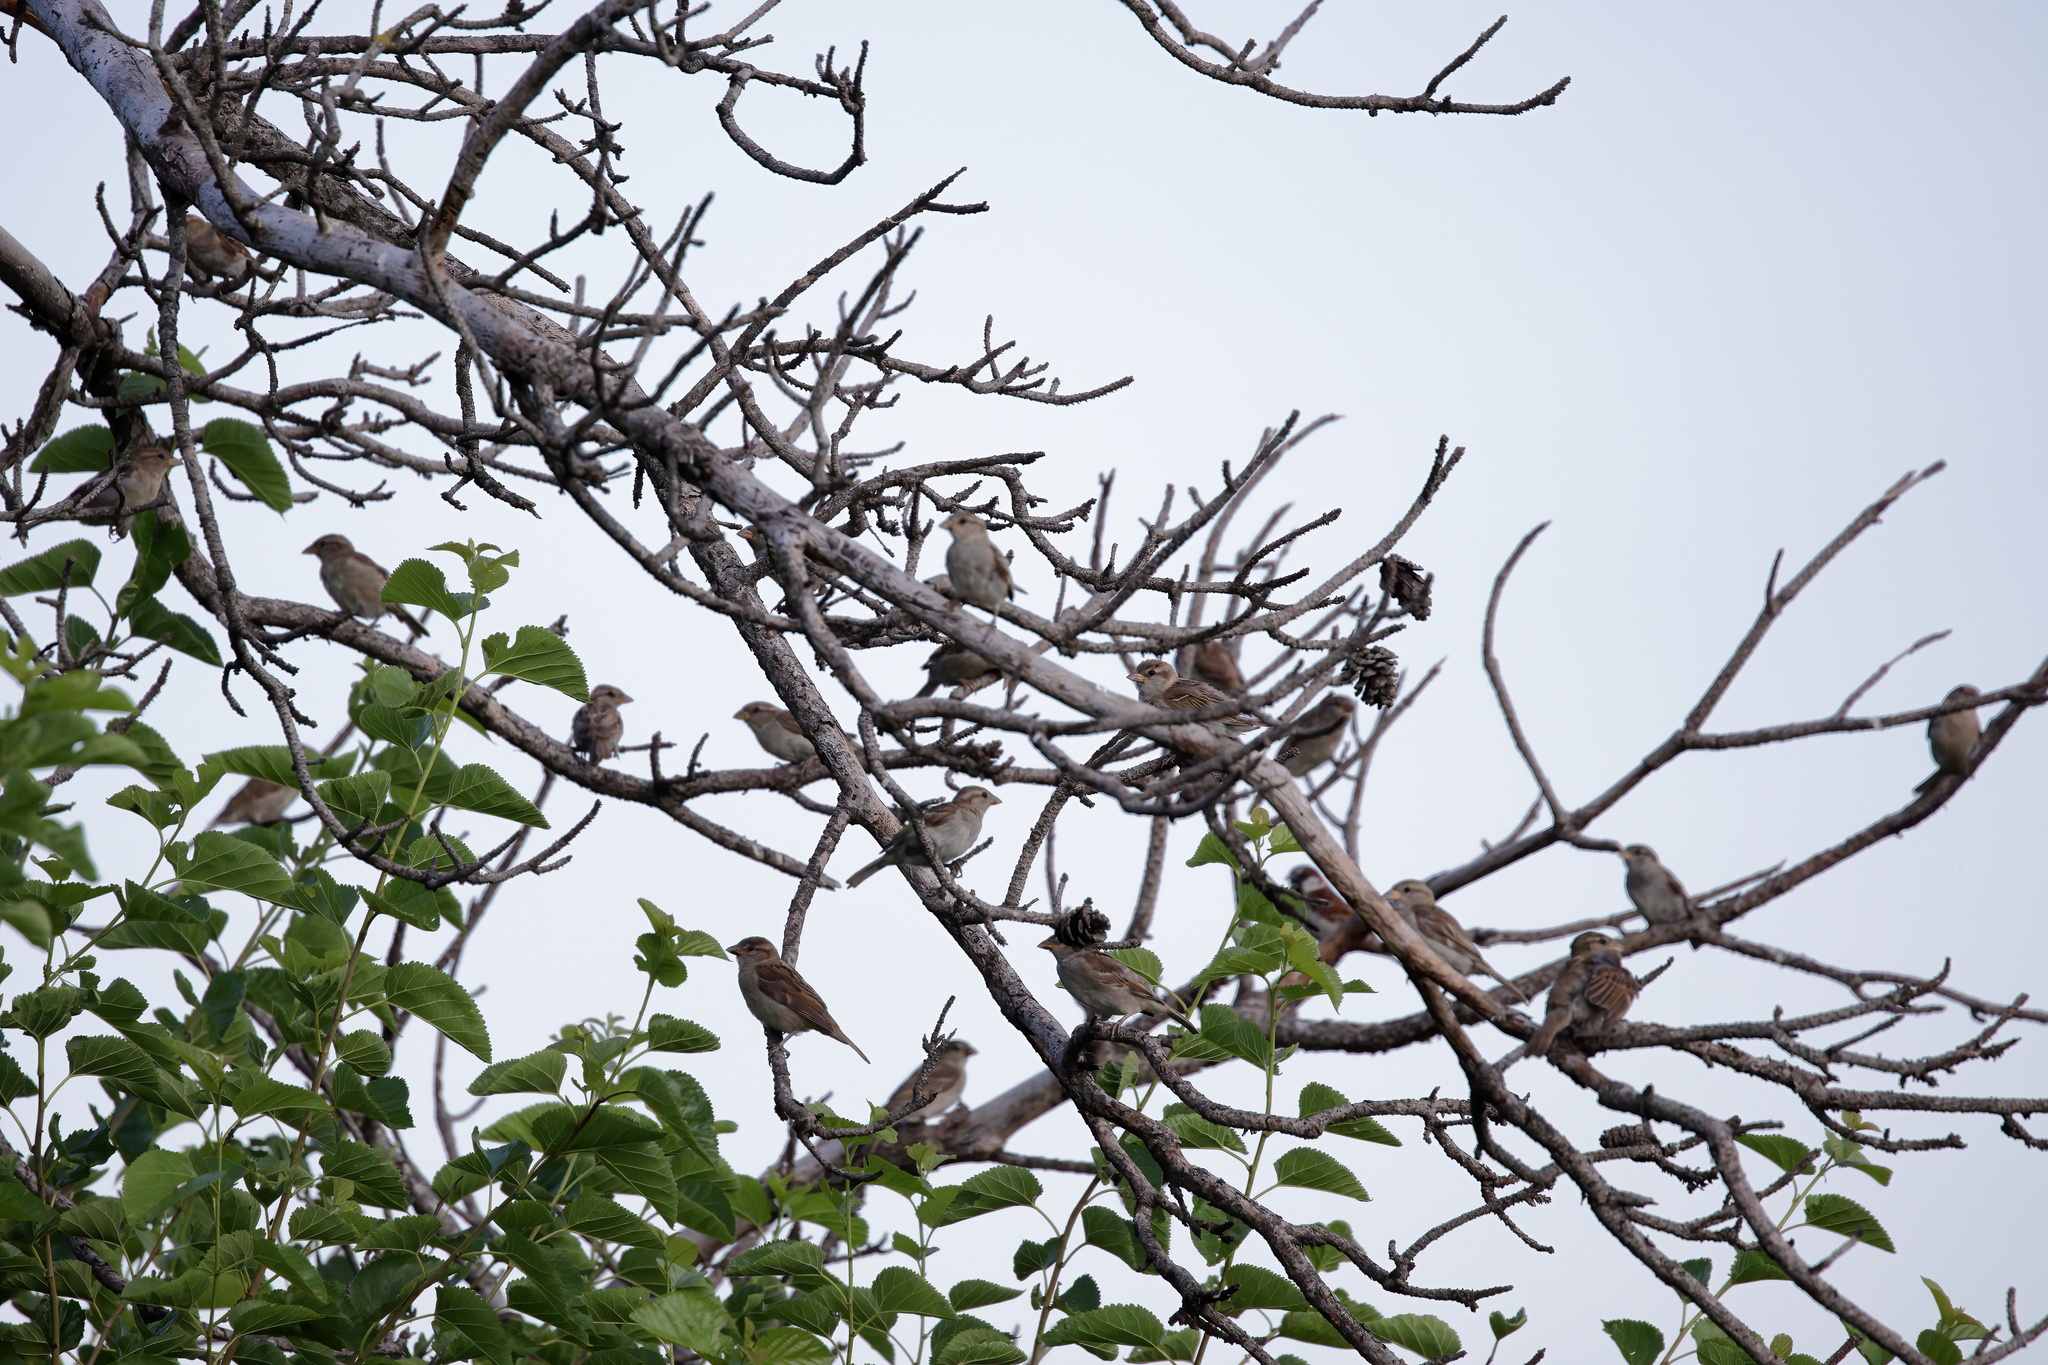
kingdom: Animalia
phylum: Chordata
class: Aves
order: Passeriformes
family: Passeridae
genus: Passer
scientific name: Passer domesticus
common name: House sparrow
